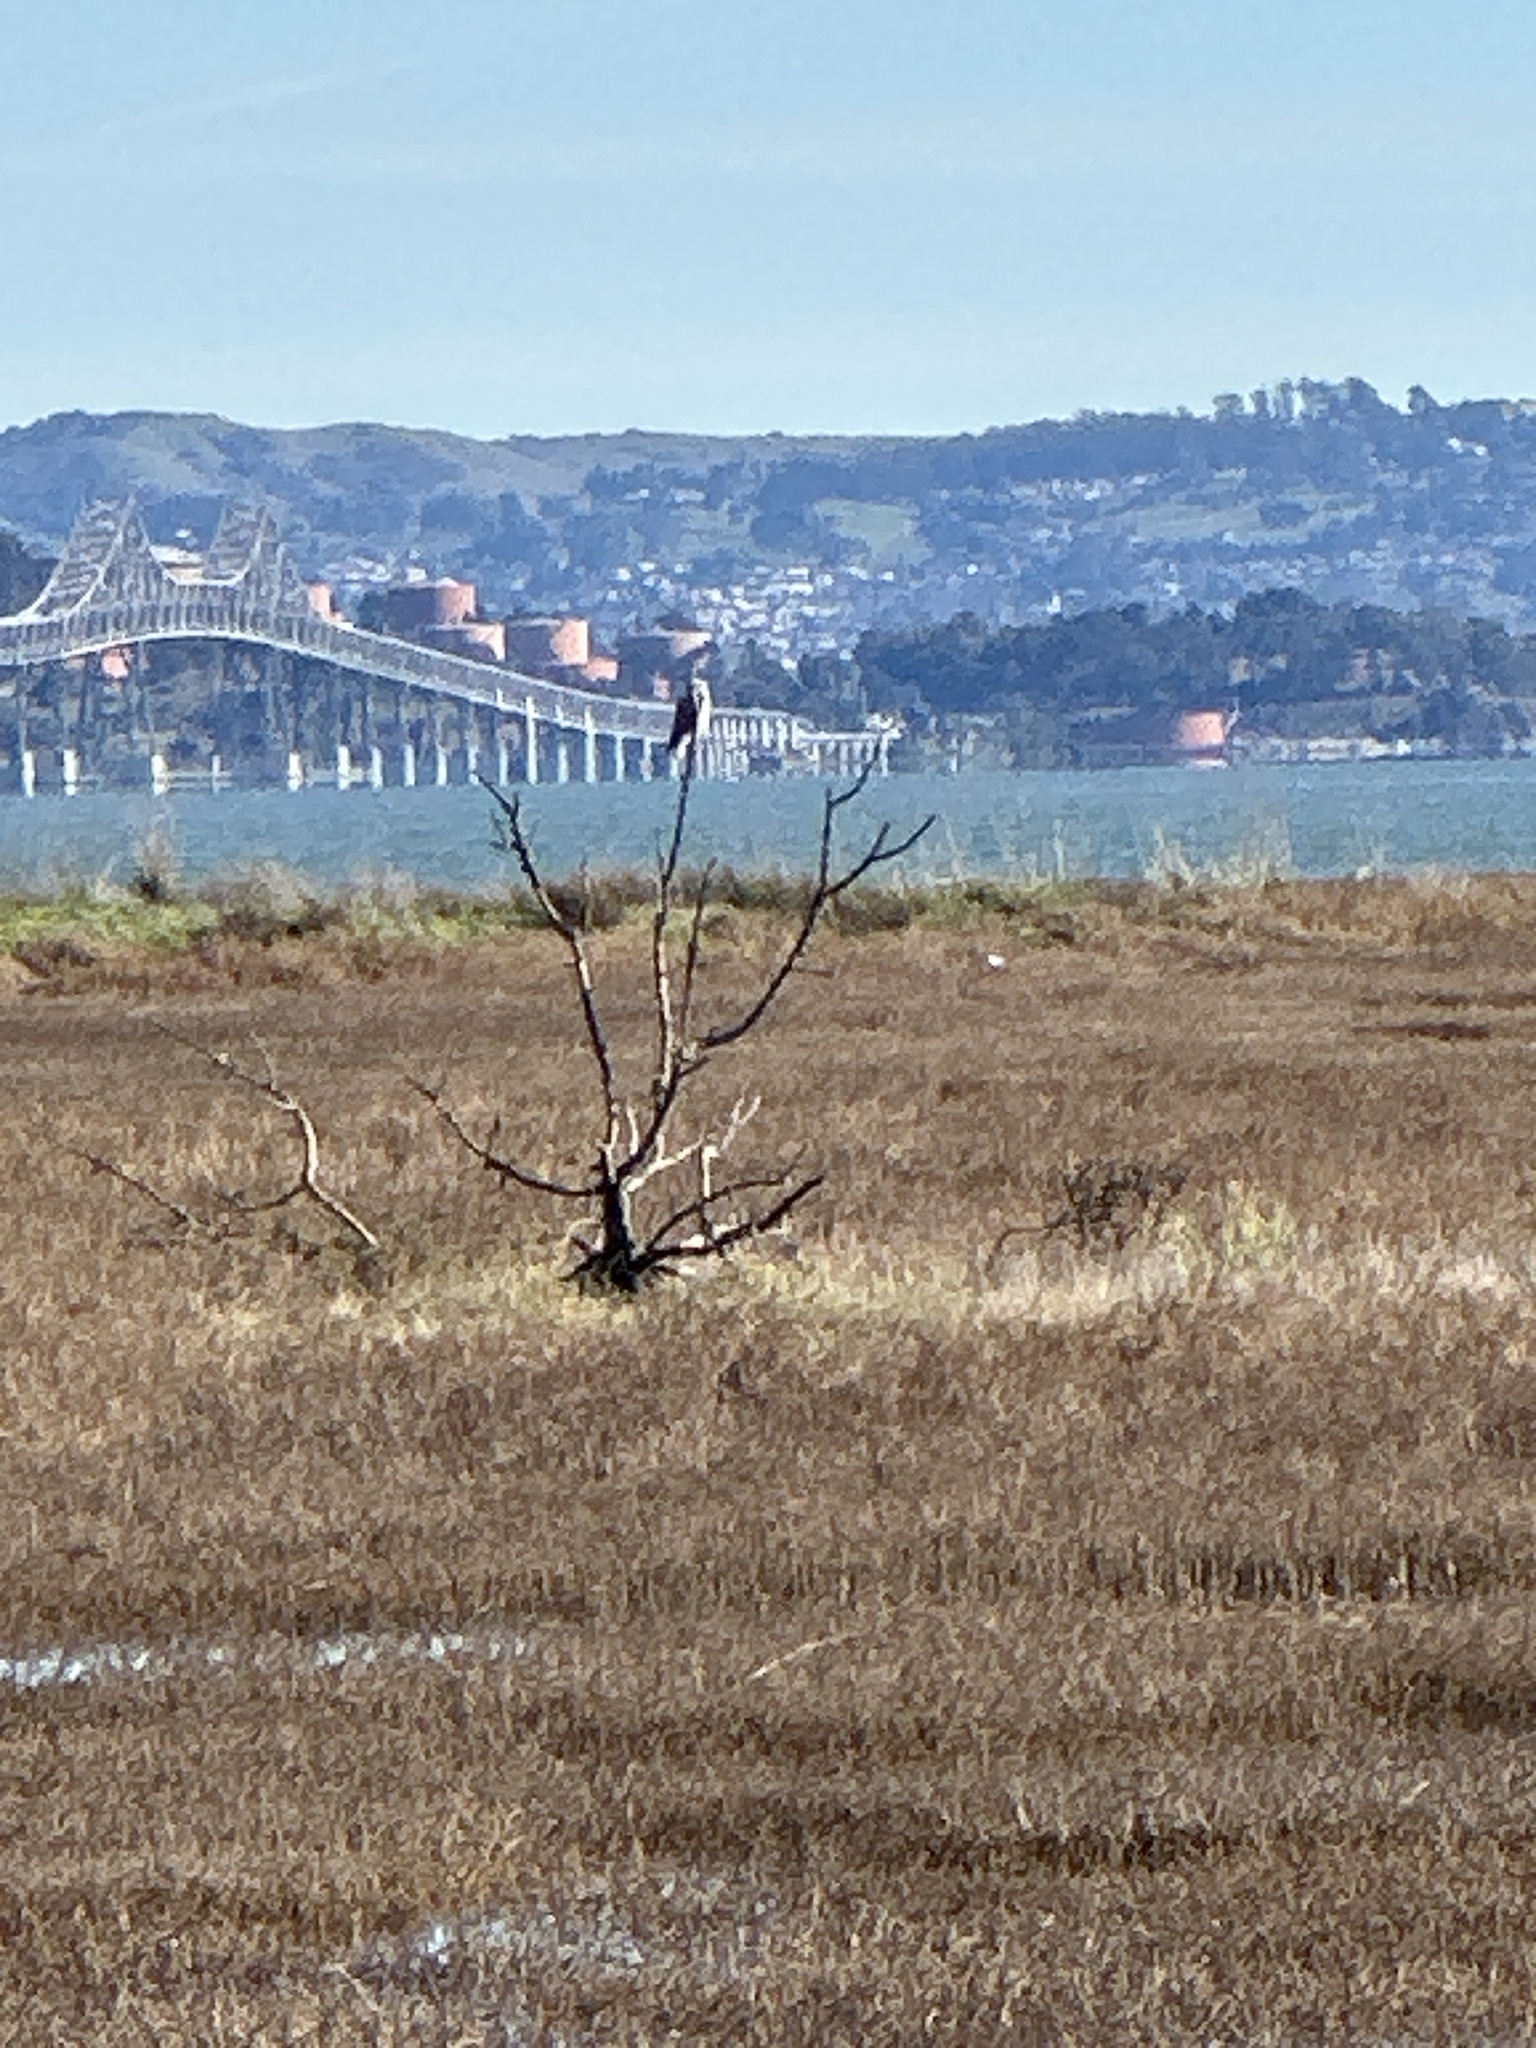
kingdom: Animalia
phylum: Chordata
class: Aves
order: Accipitriformes
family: Accipitridae
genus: Elanus
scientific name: Elanus leucurus
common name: White-tailed kite
